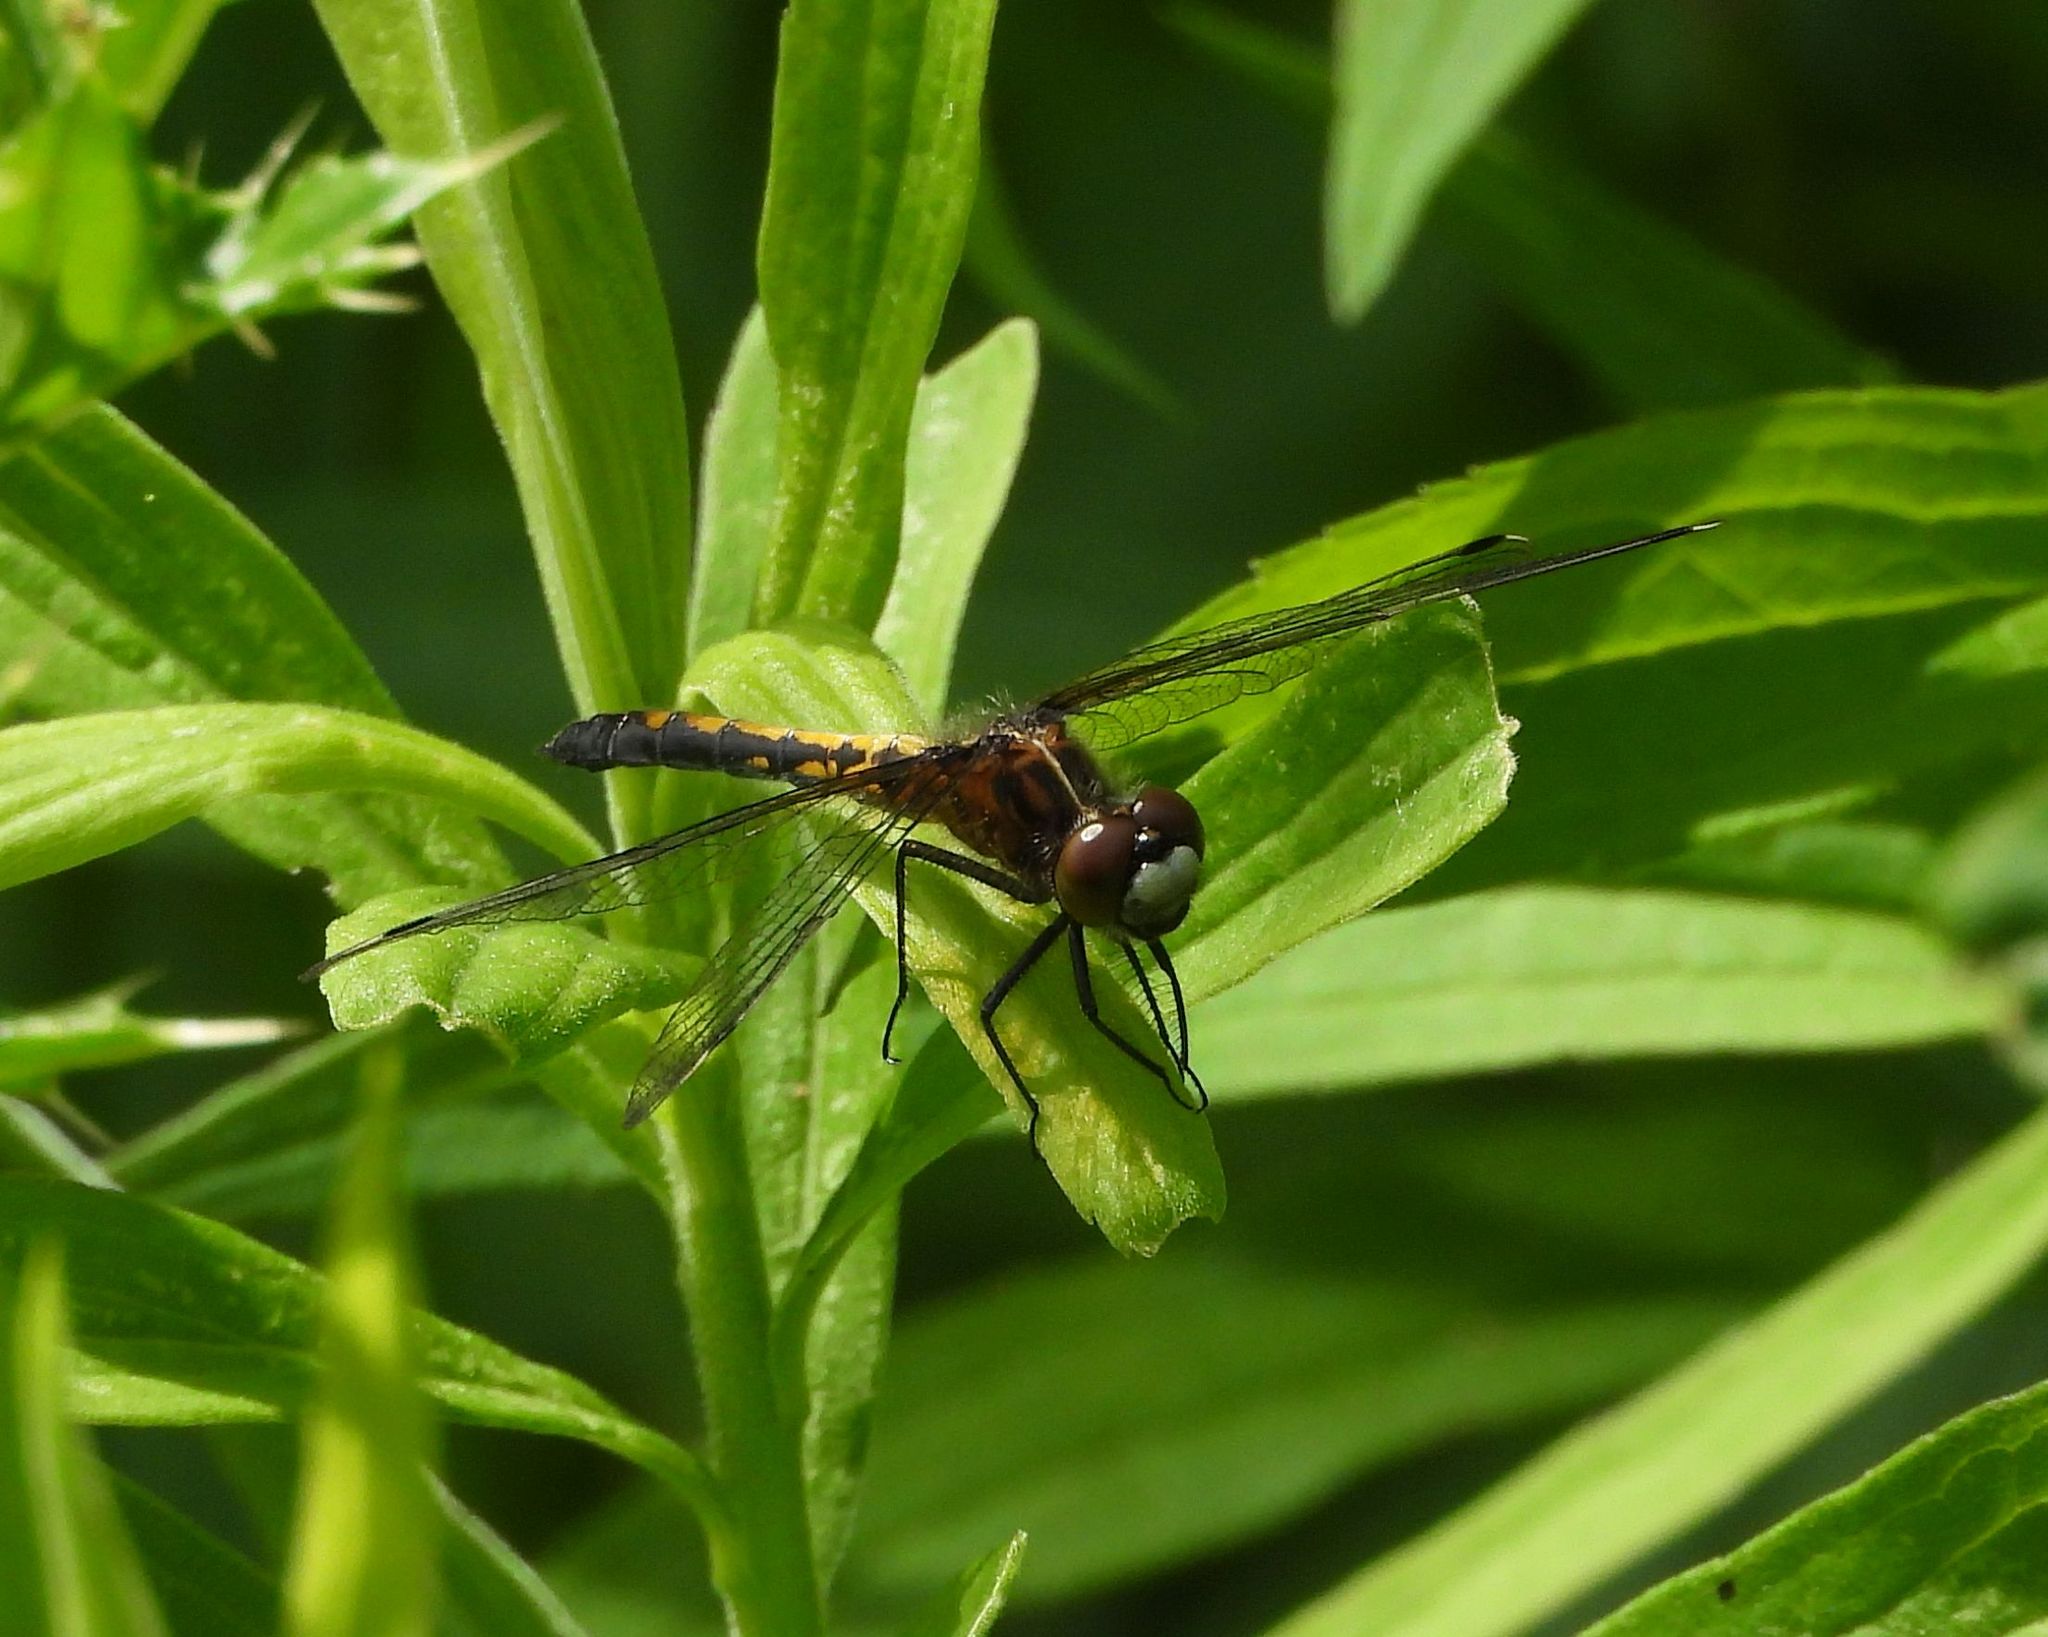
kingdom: Animalia
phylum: Arthropoda
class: Insecta
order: Odonata
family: Libellulidae
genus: Leucorrhinia
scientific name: Leucorrhinia intacta
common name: Dot-tailed whiteface
